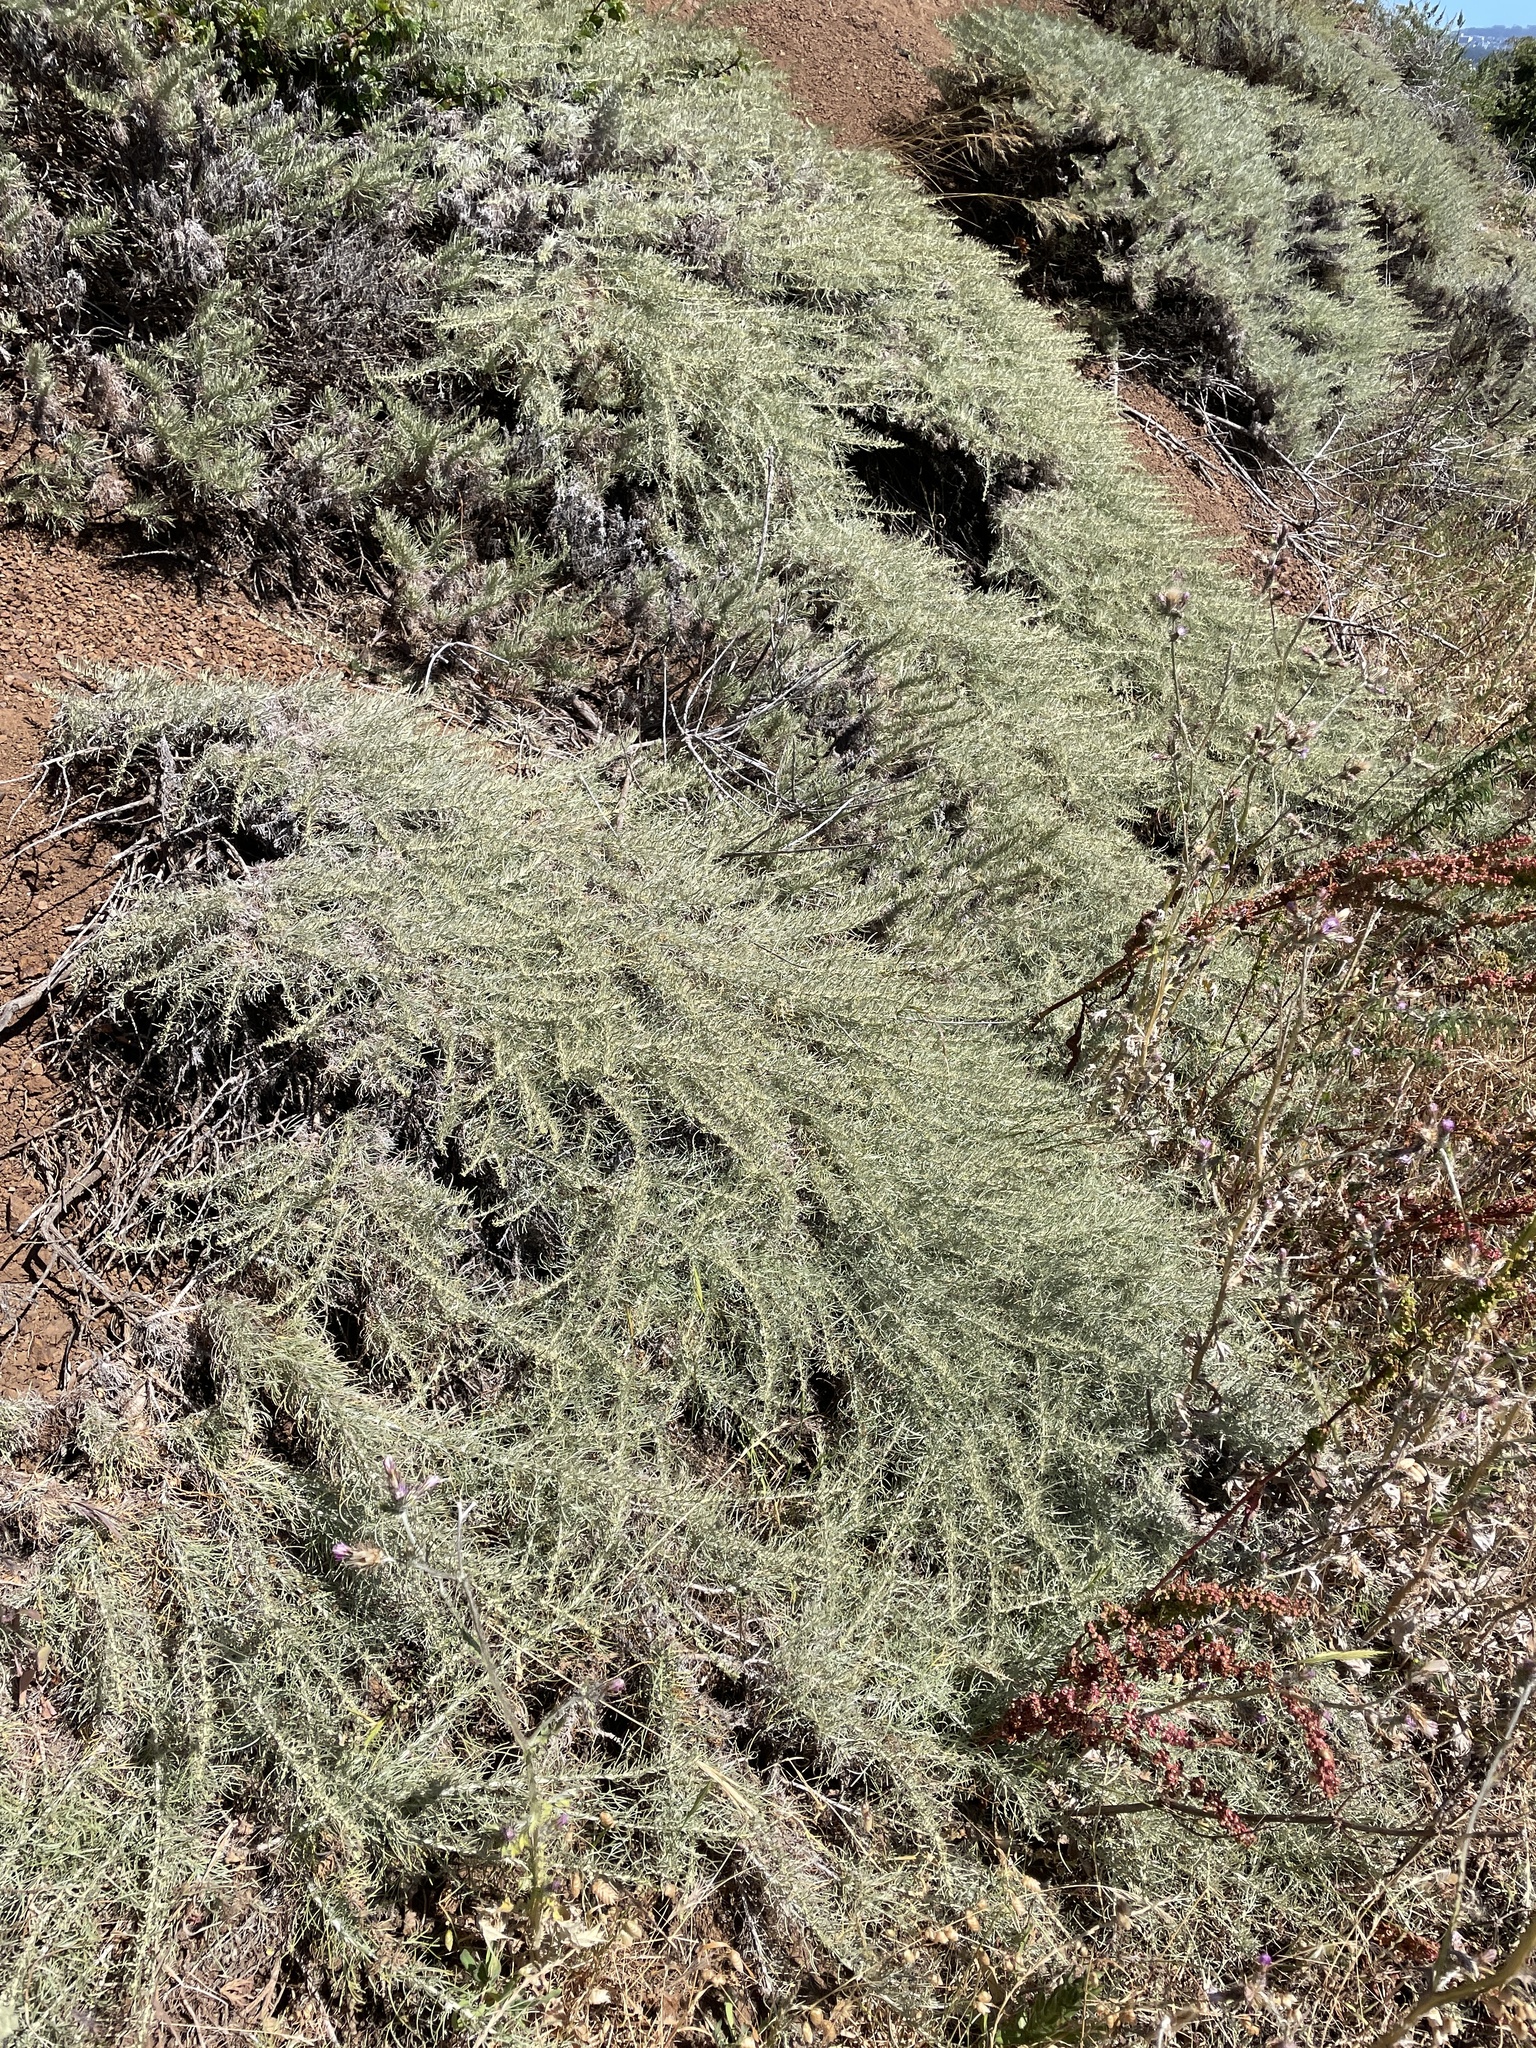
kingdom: Plantae
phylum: Tracheophyta
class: Magnoliopsida
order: Asterales
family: Asteraceae
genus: Artemisia
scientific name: Artemisia californica
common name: California sagebrush
